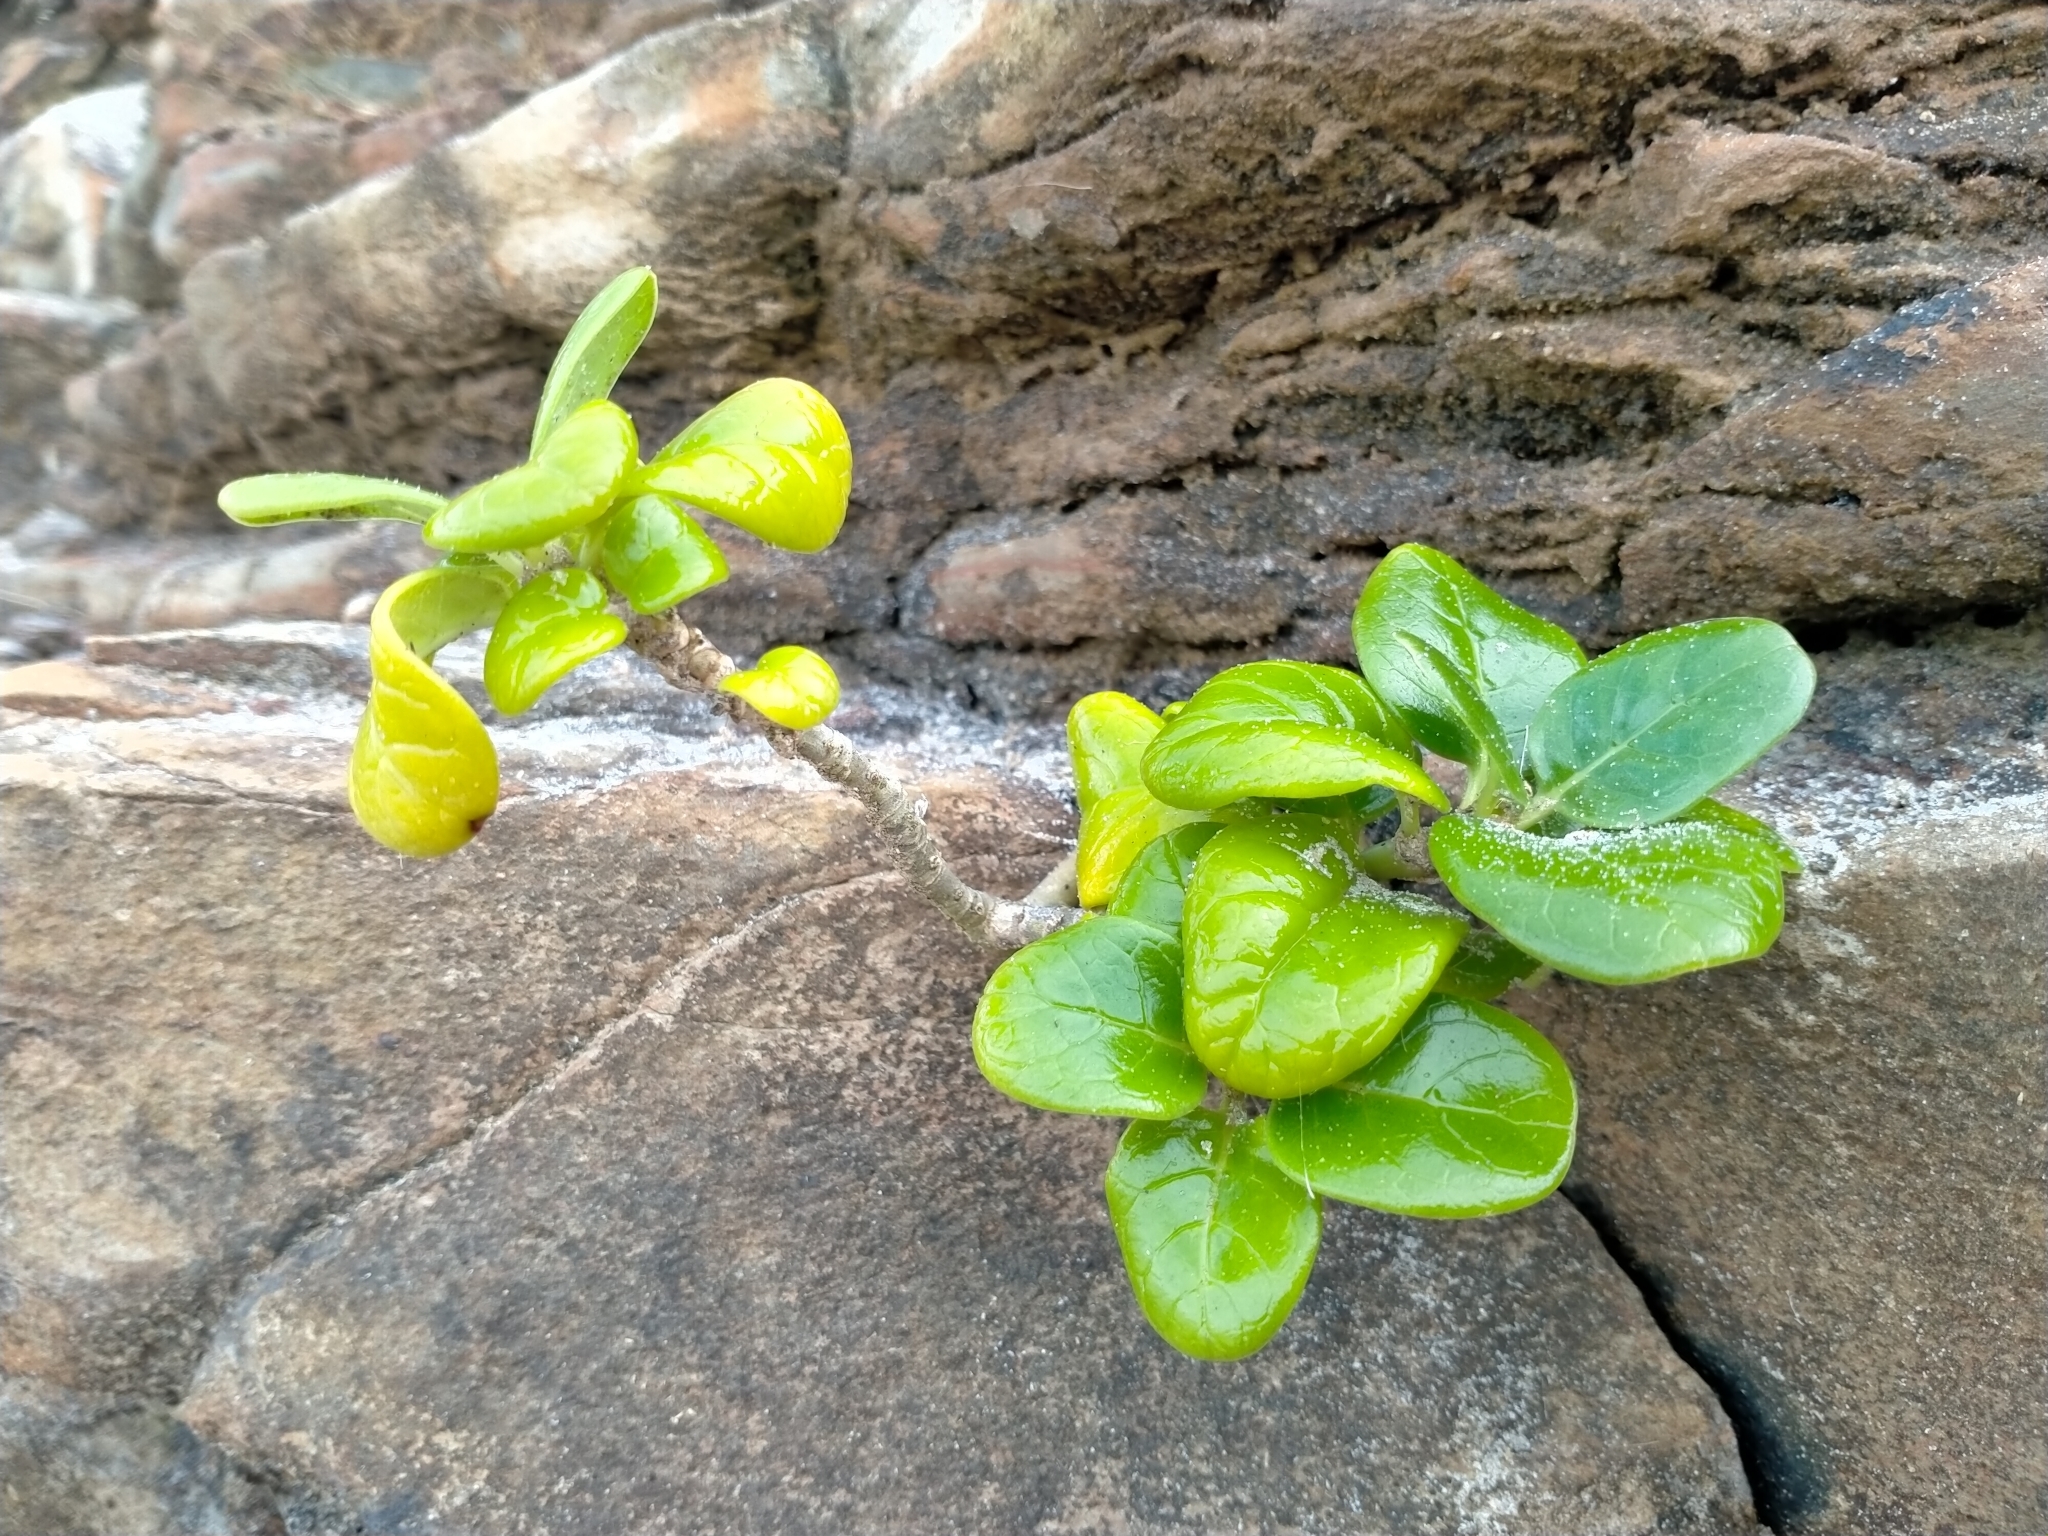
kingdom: Plantae
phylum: Tracheophyta
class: Magnoliopsida
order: Gentianales
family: Rubiaceae
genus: Coprosma
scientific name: Coprosma repens
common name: Tree bedstraw
